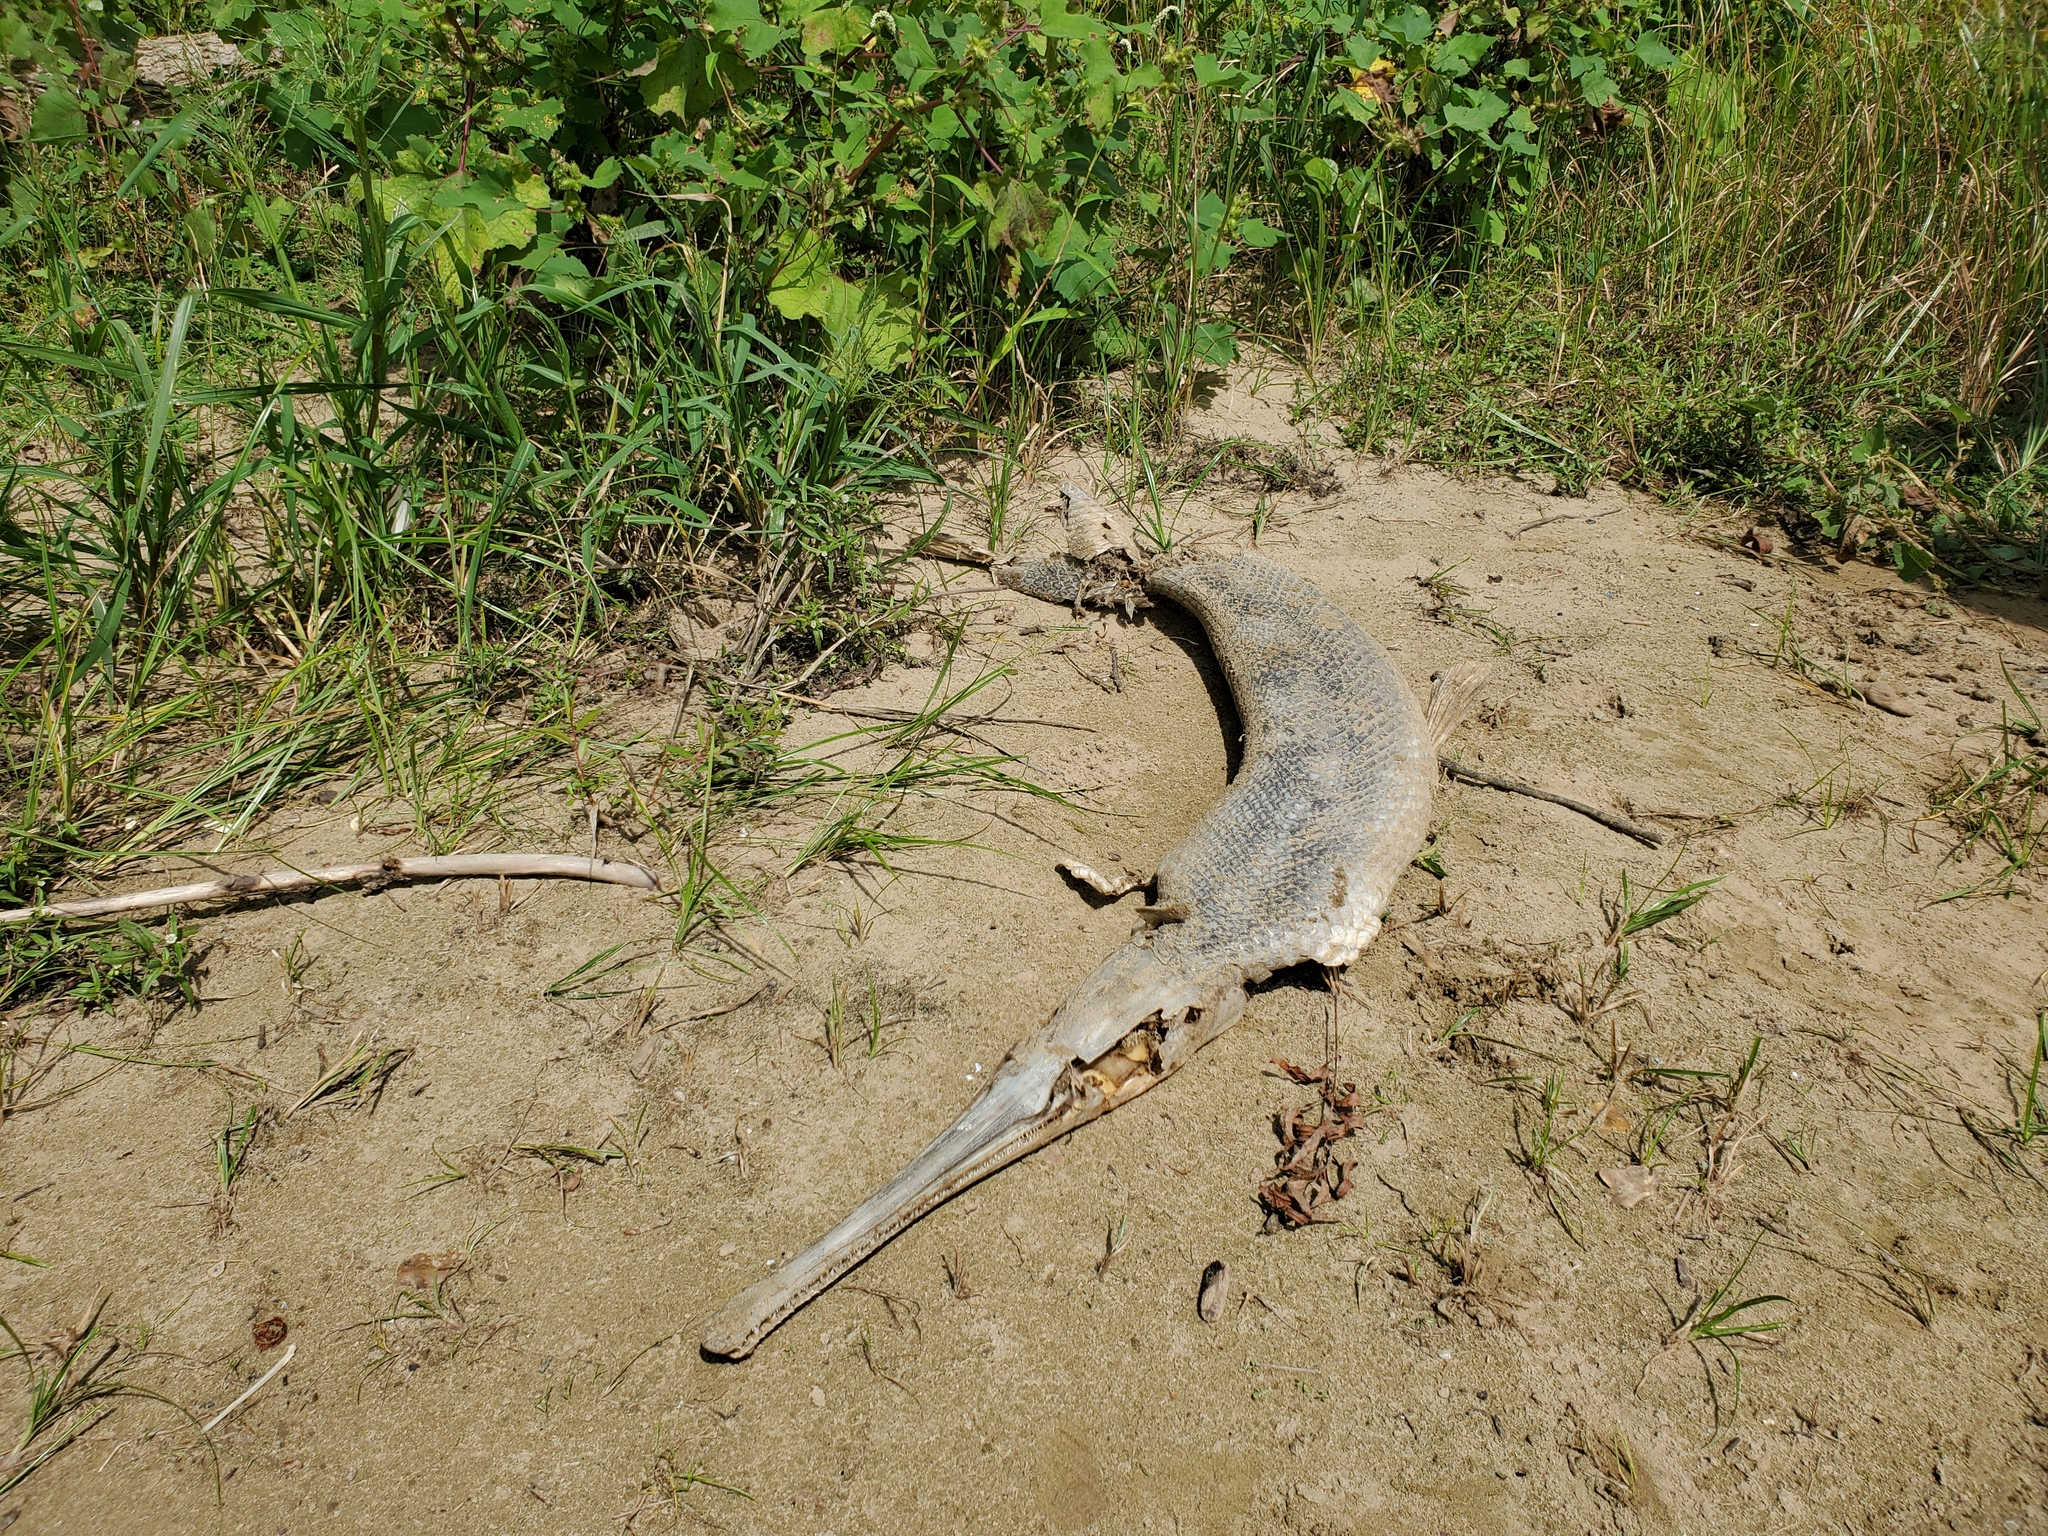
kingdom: Animalia
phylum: Chordata
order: Lepisosteiformes
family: Lepisosteidae
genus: Lepisosteus
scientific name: Lepisosteus osseus
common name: Longnose gar
